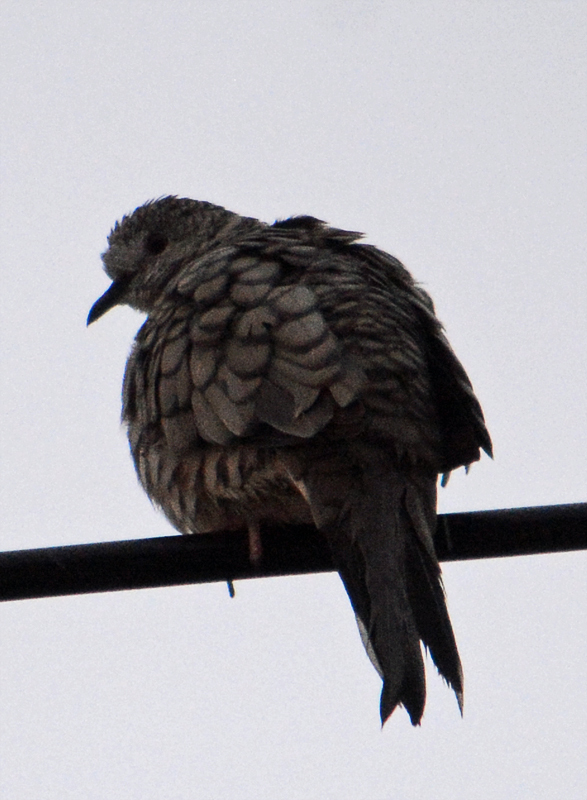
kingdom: Animalia
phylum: Chordata
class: Aves
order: Columbiformes
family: Columbidae
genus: Columbina
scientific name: Columbina inca
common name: Inca dove
